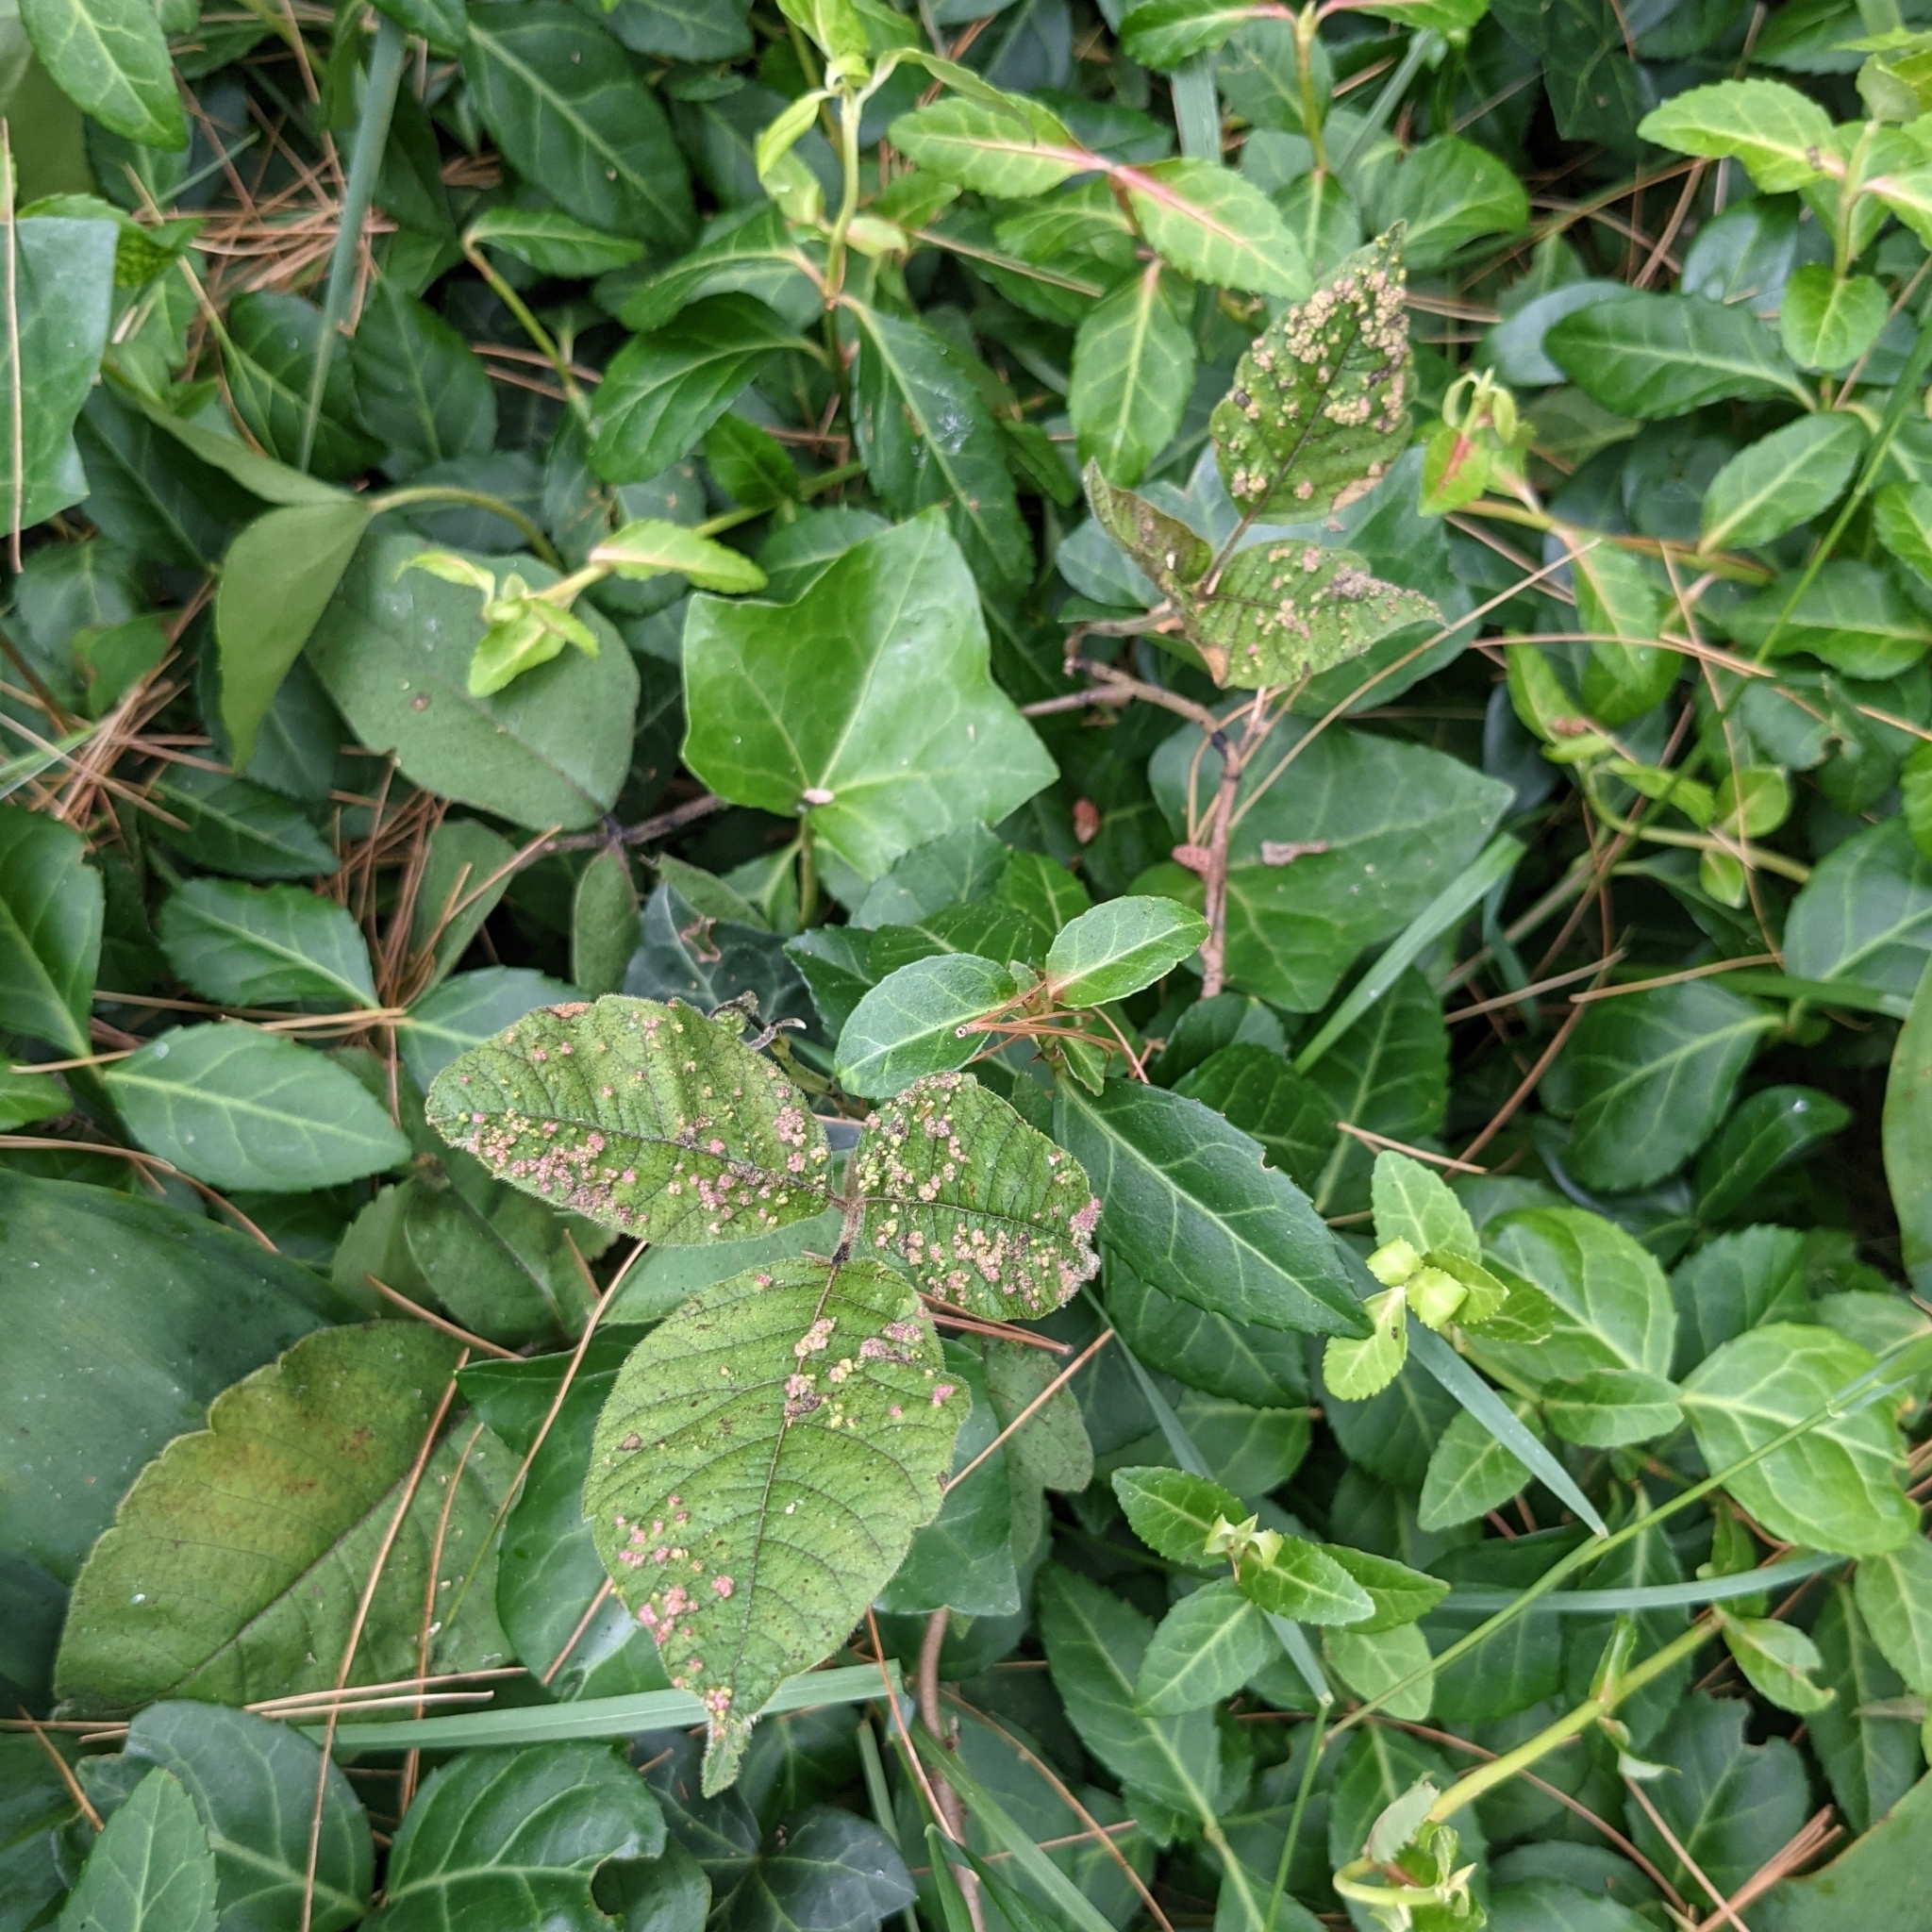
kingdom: Animalia
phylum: Arthropoda
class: Arachnida
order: Trombidiformes
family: Eriophyidae
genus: Aculops
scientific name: Aculops
